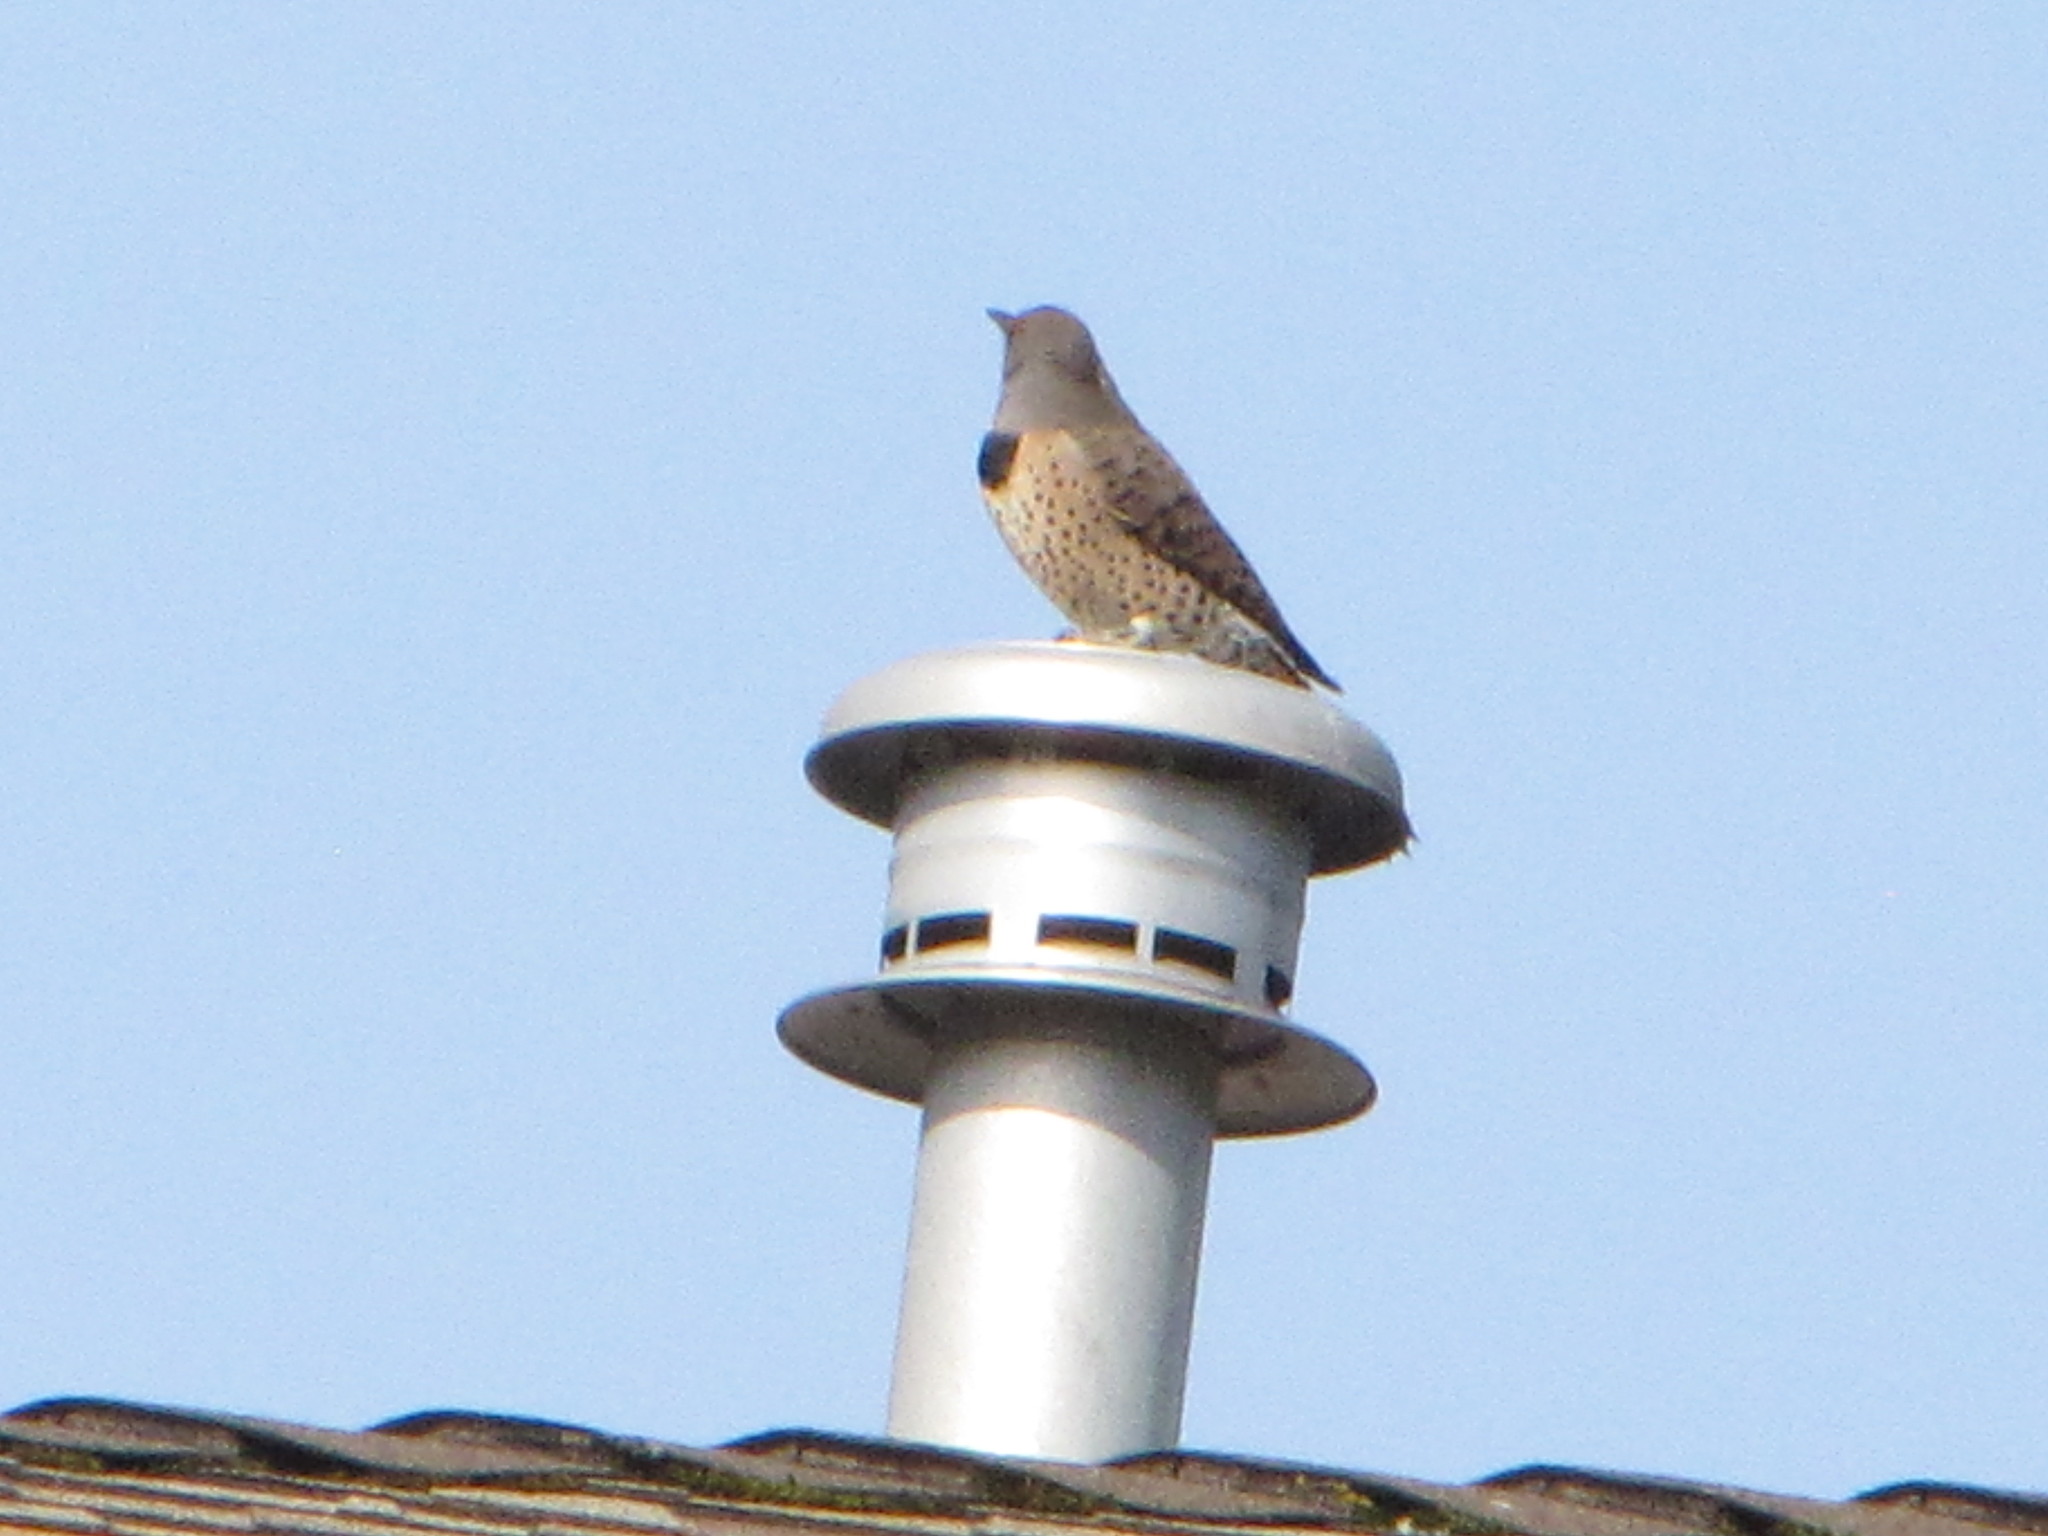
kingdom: Animalia
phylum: Chordata
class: Aves
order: Piciformes
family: Picidae
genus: Colaptes
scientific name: Colaptes auratus
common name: Northern flicker
